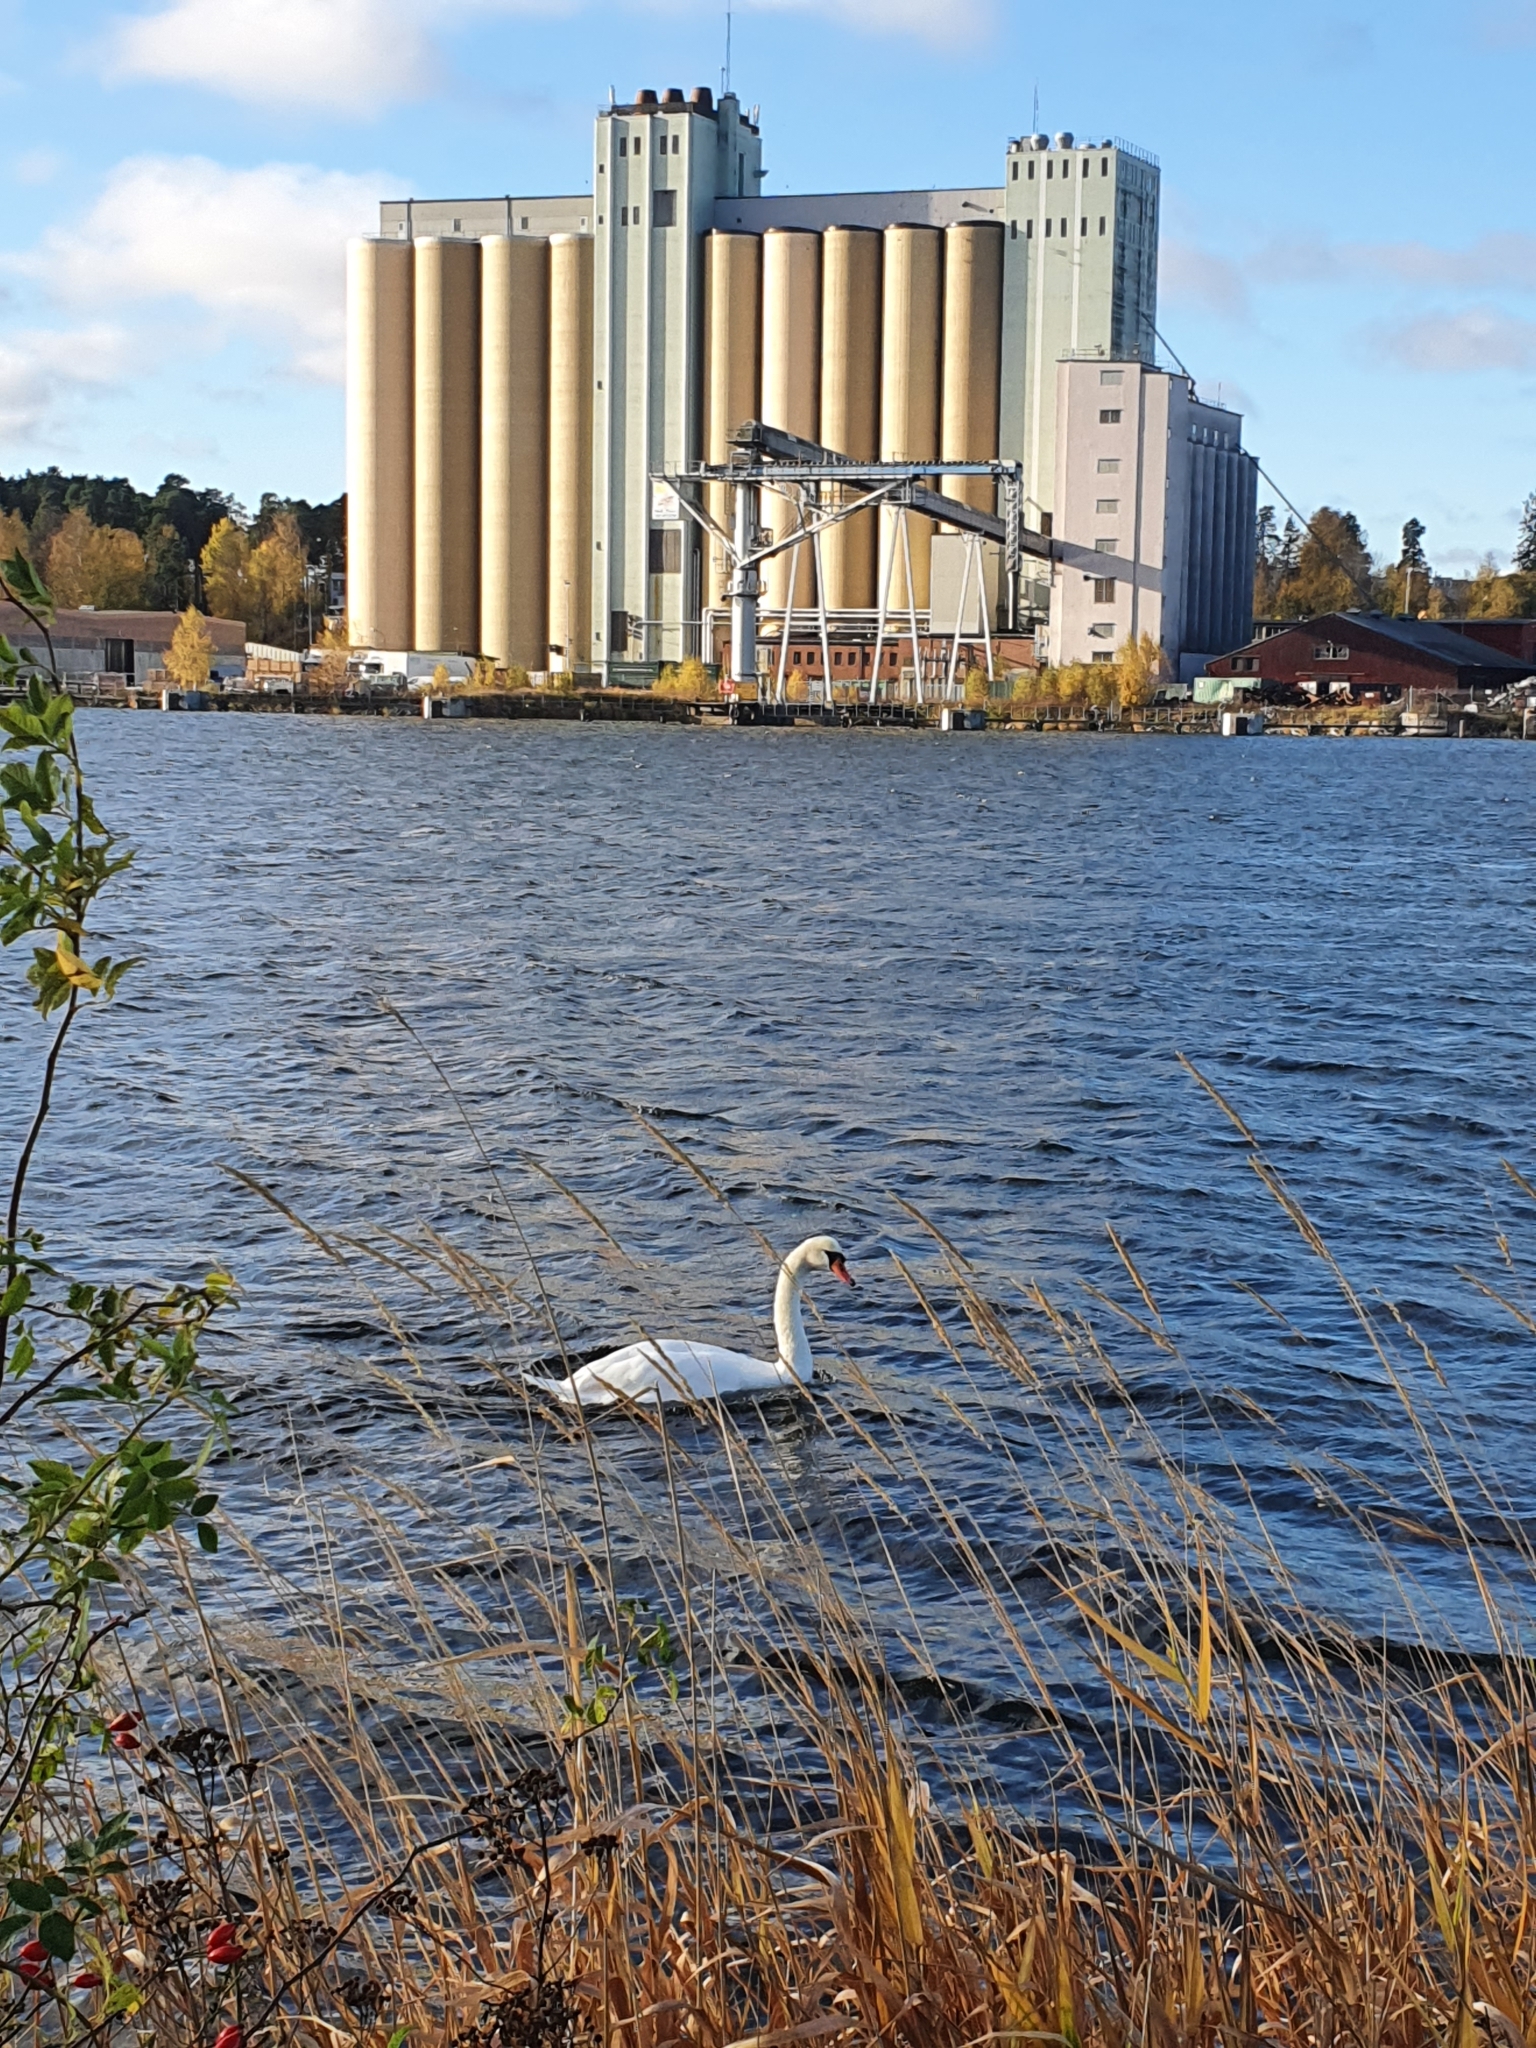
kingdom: Animalia
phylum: Chordata
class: Aves
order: Anseriformes
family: Anatidae
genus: Cygnus
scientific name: Cygnus olor
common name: Mute swan
